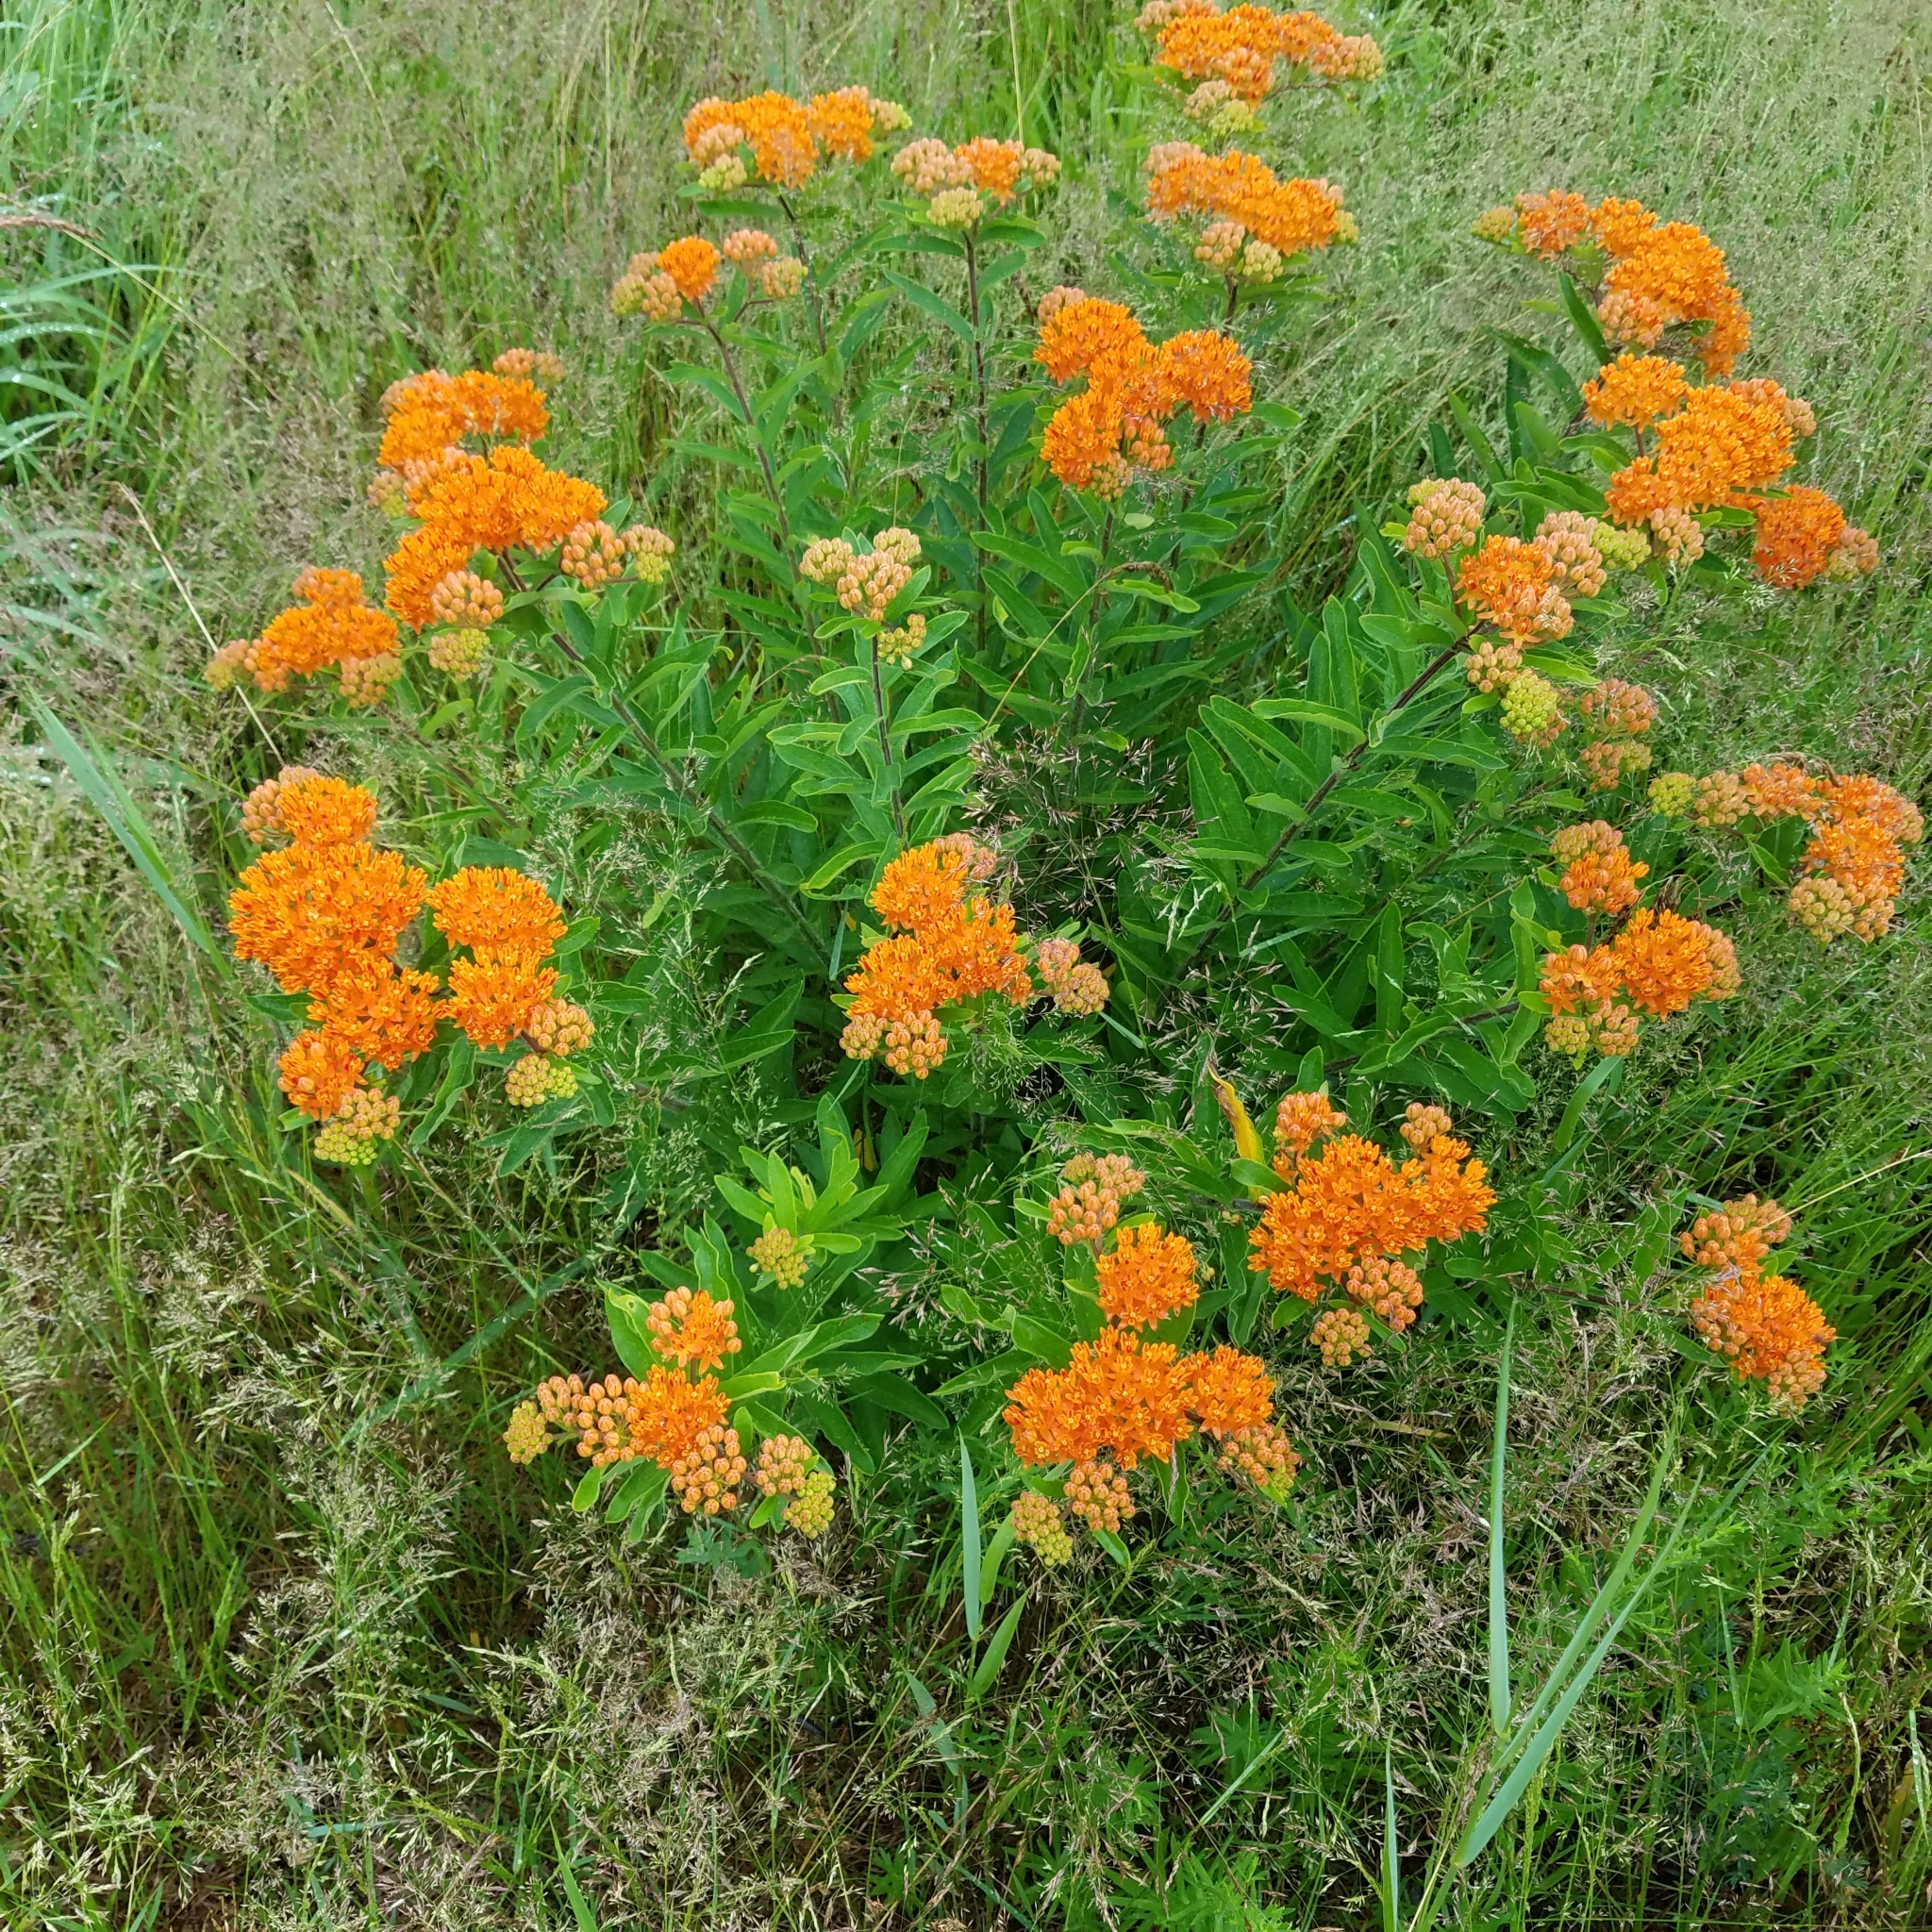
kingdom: Plantae
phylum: Tracheophyta
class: Magnoliopsida
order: Gentianales
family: Apocynaceae
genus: Asclepias
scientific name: Asclepias tuberosa
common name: Butterfly milkweed
